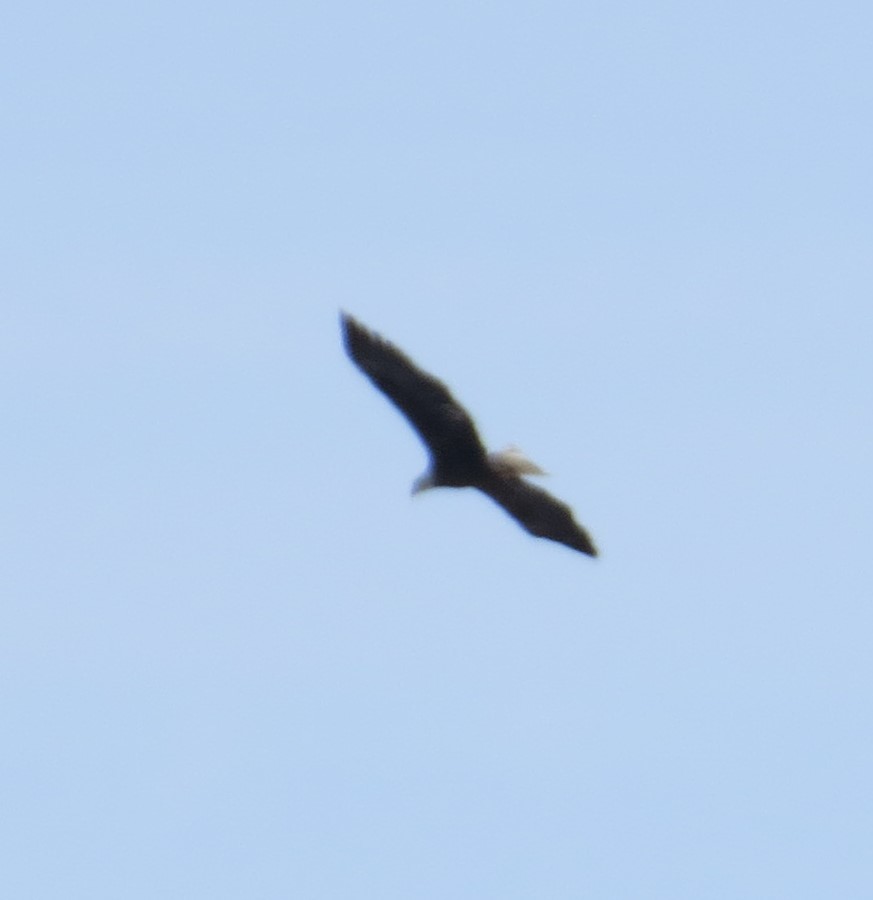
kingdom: Animalia
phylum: Chordata
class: Aves
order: Accipitriformes
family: Accipitridae
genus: Haliaeetus
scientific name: Haliaeetus leucocephalus
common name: Bald eagle
